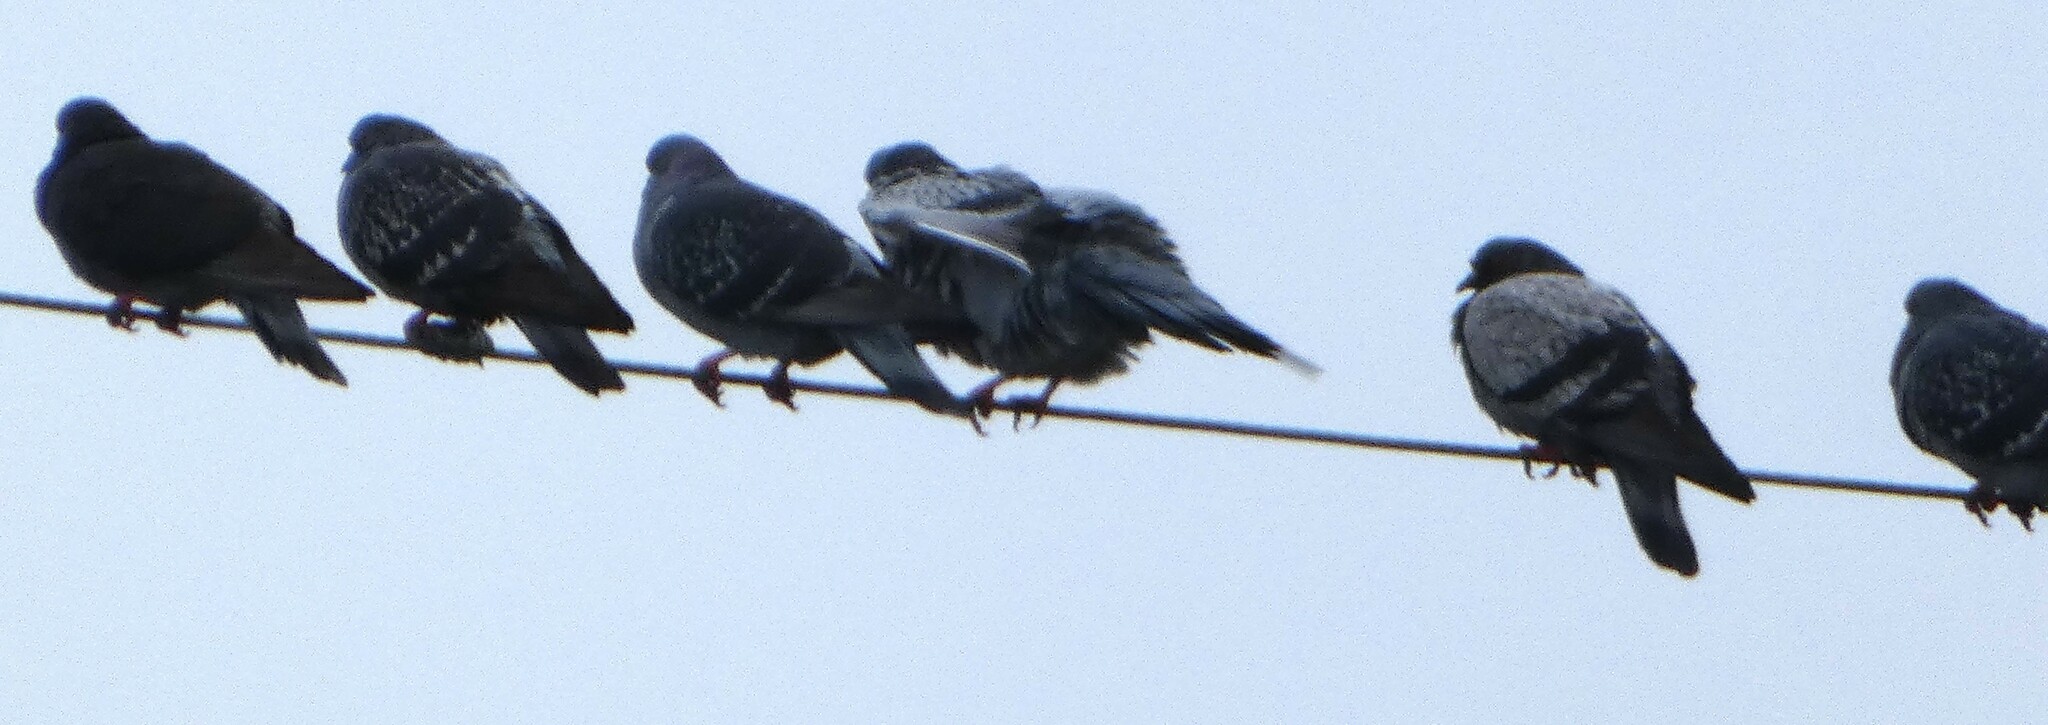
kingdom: Animalia
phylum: Chordata
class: Aves
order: Columbiformes
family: Columbidae
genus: Columba
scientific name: Columba livia
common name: Rock pigeon
